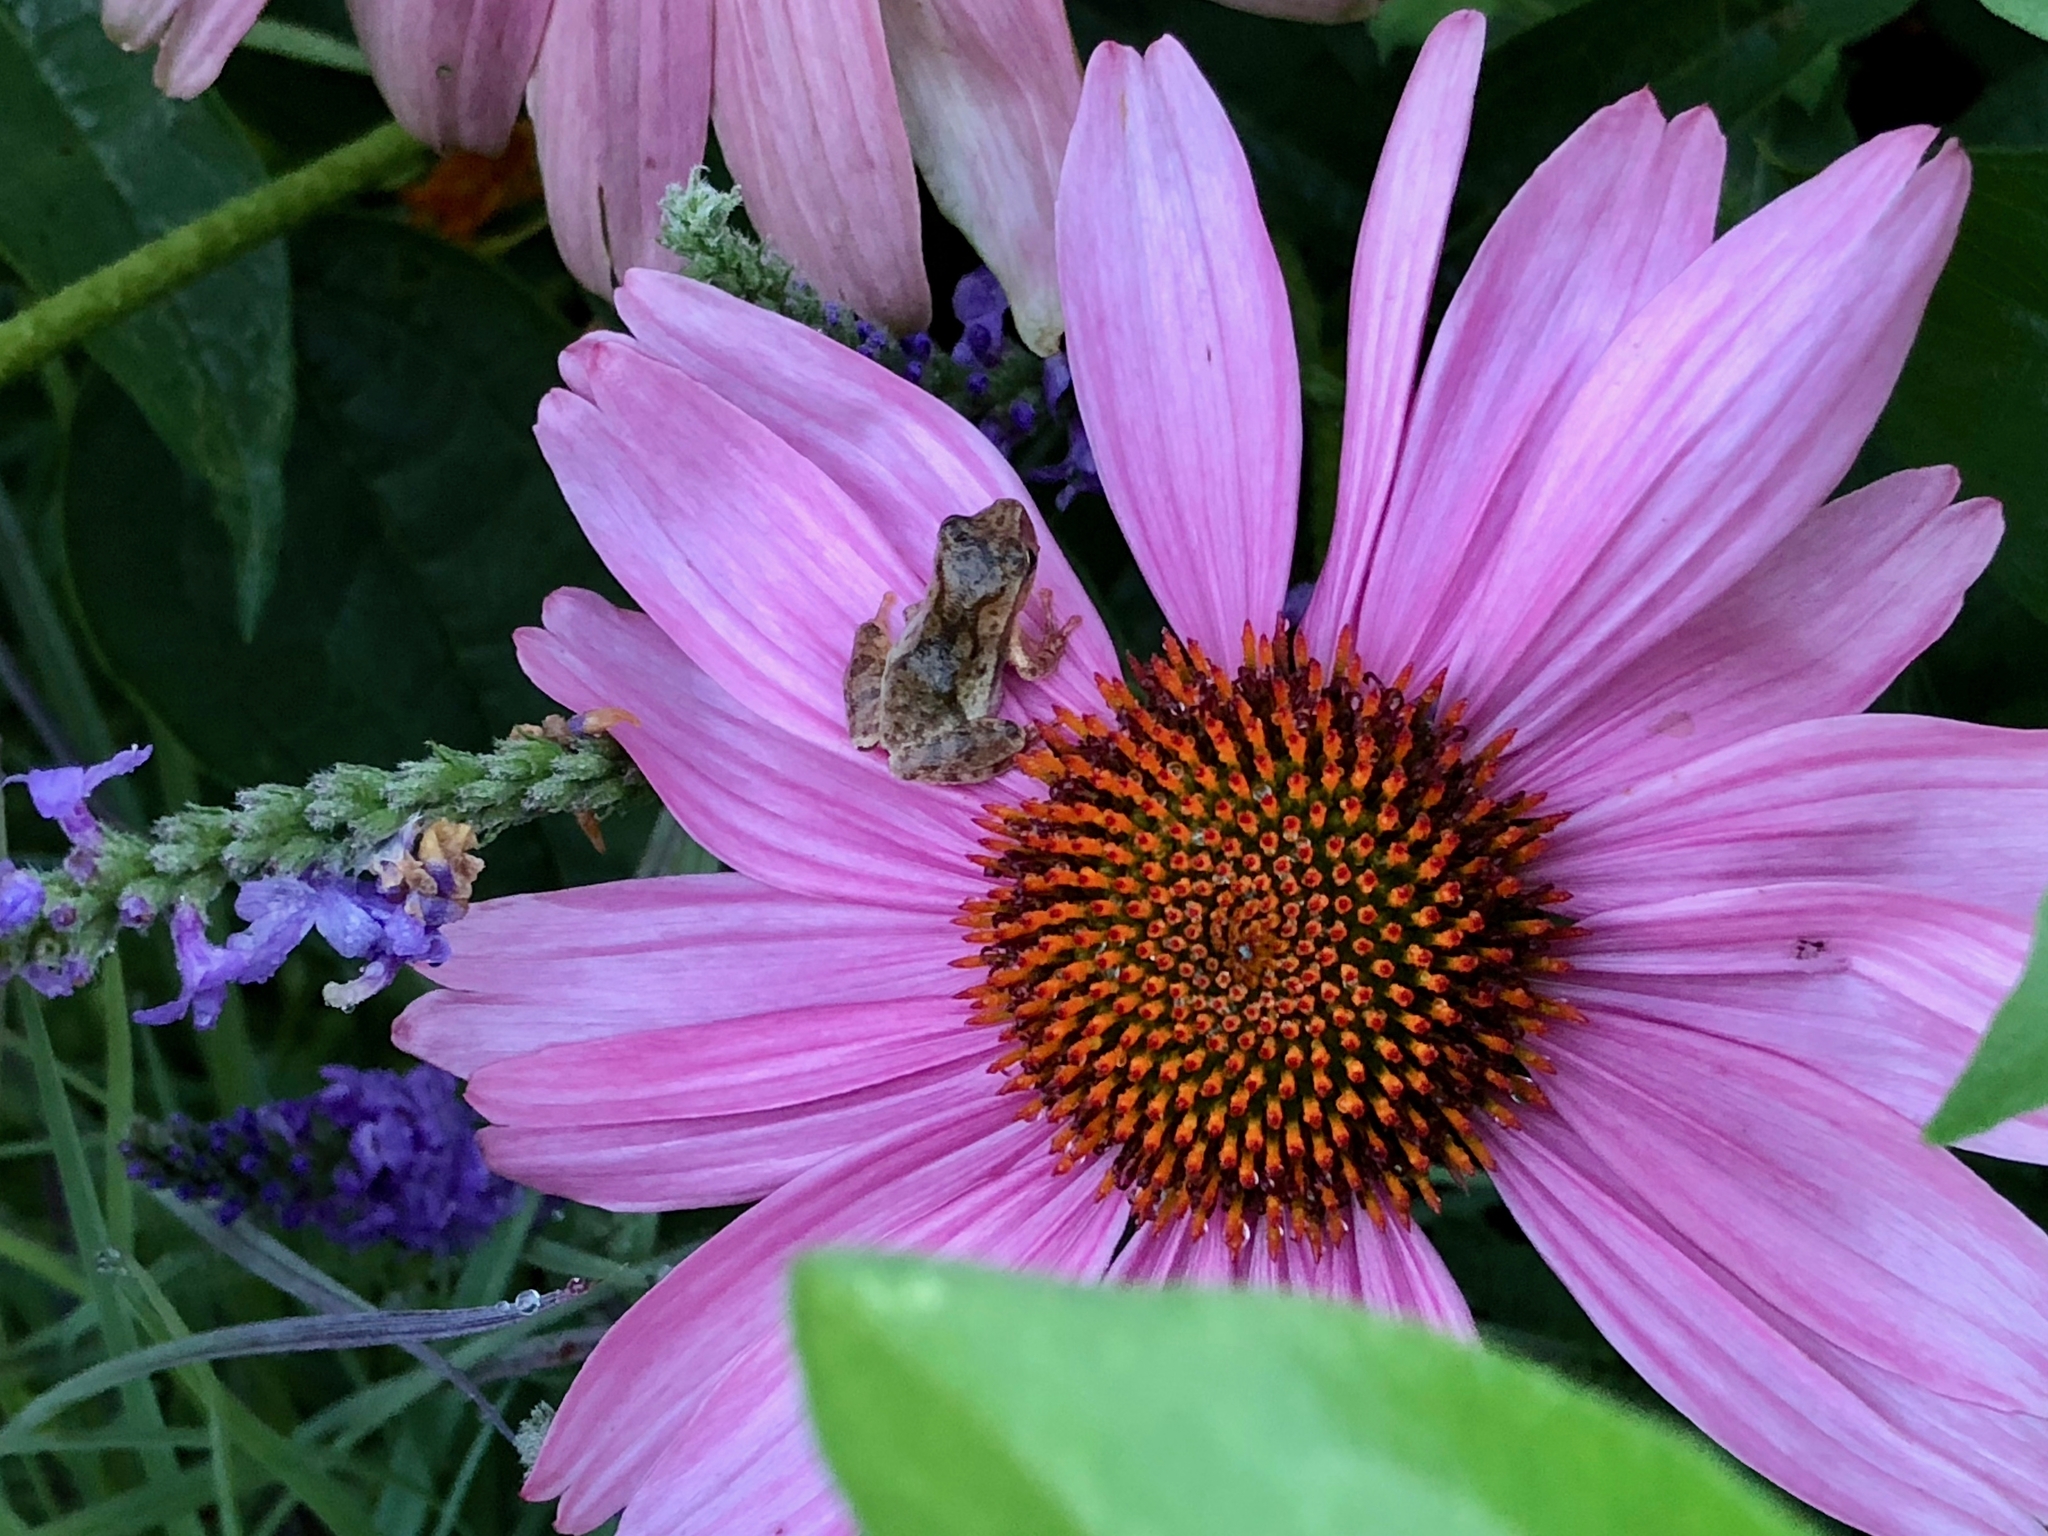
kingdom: Animalia
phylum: Chordata
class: Amphibia
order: Anura
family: Hylidae
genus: Pseudacris
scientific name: Pseudacris crucifer
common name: Spring peeper
